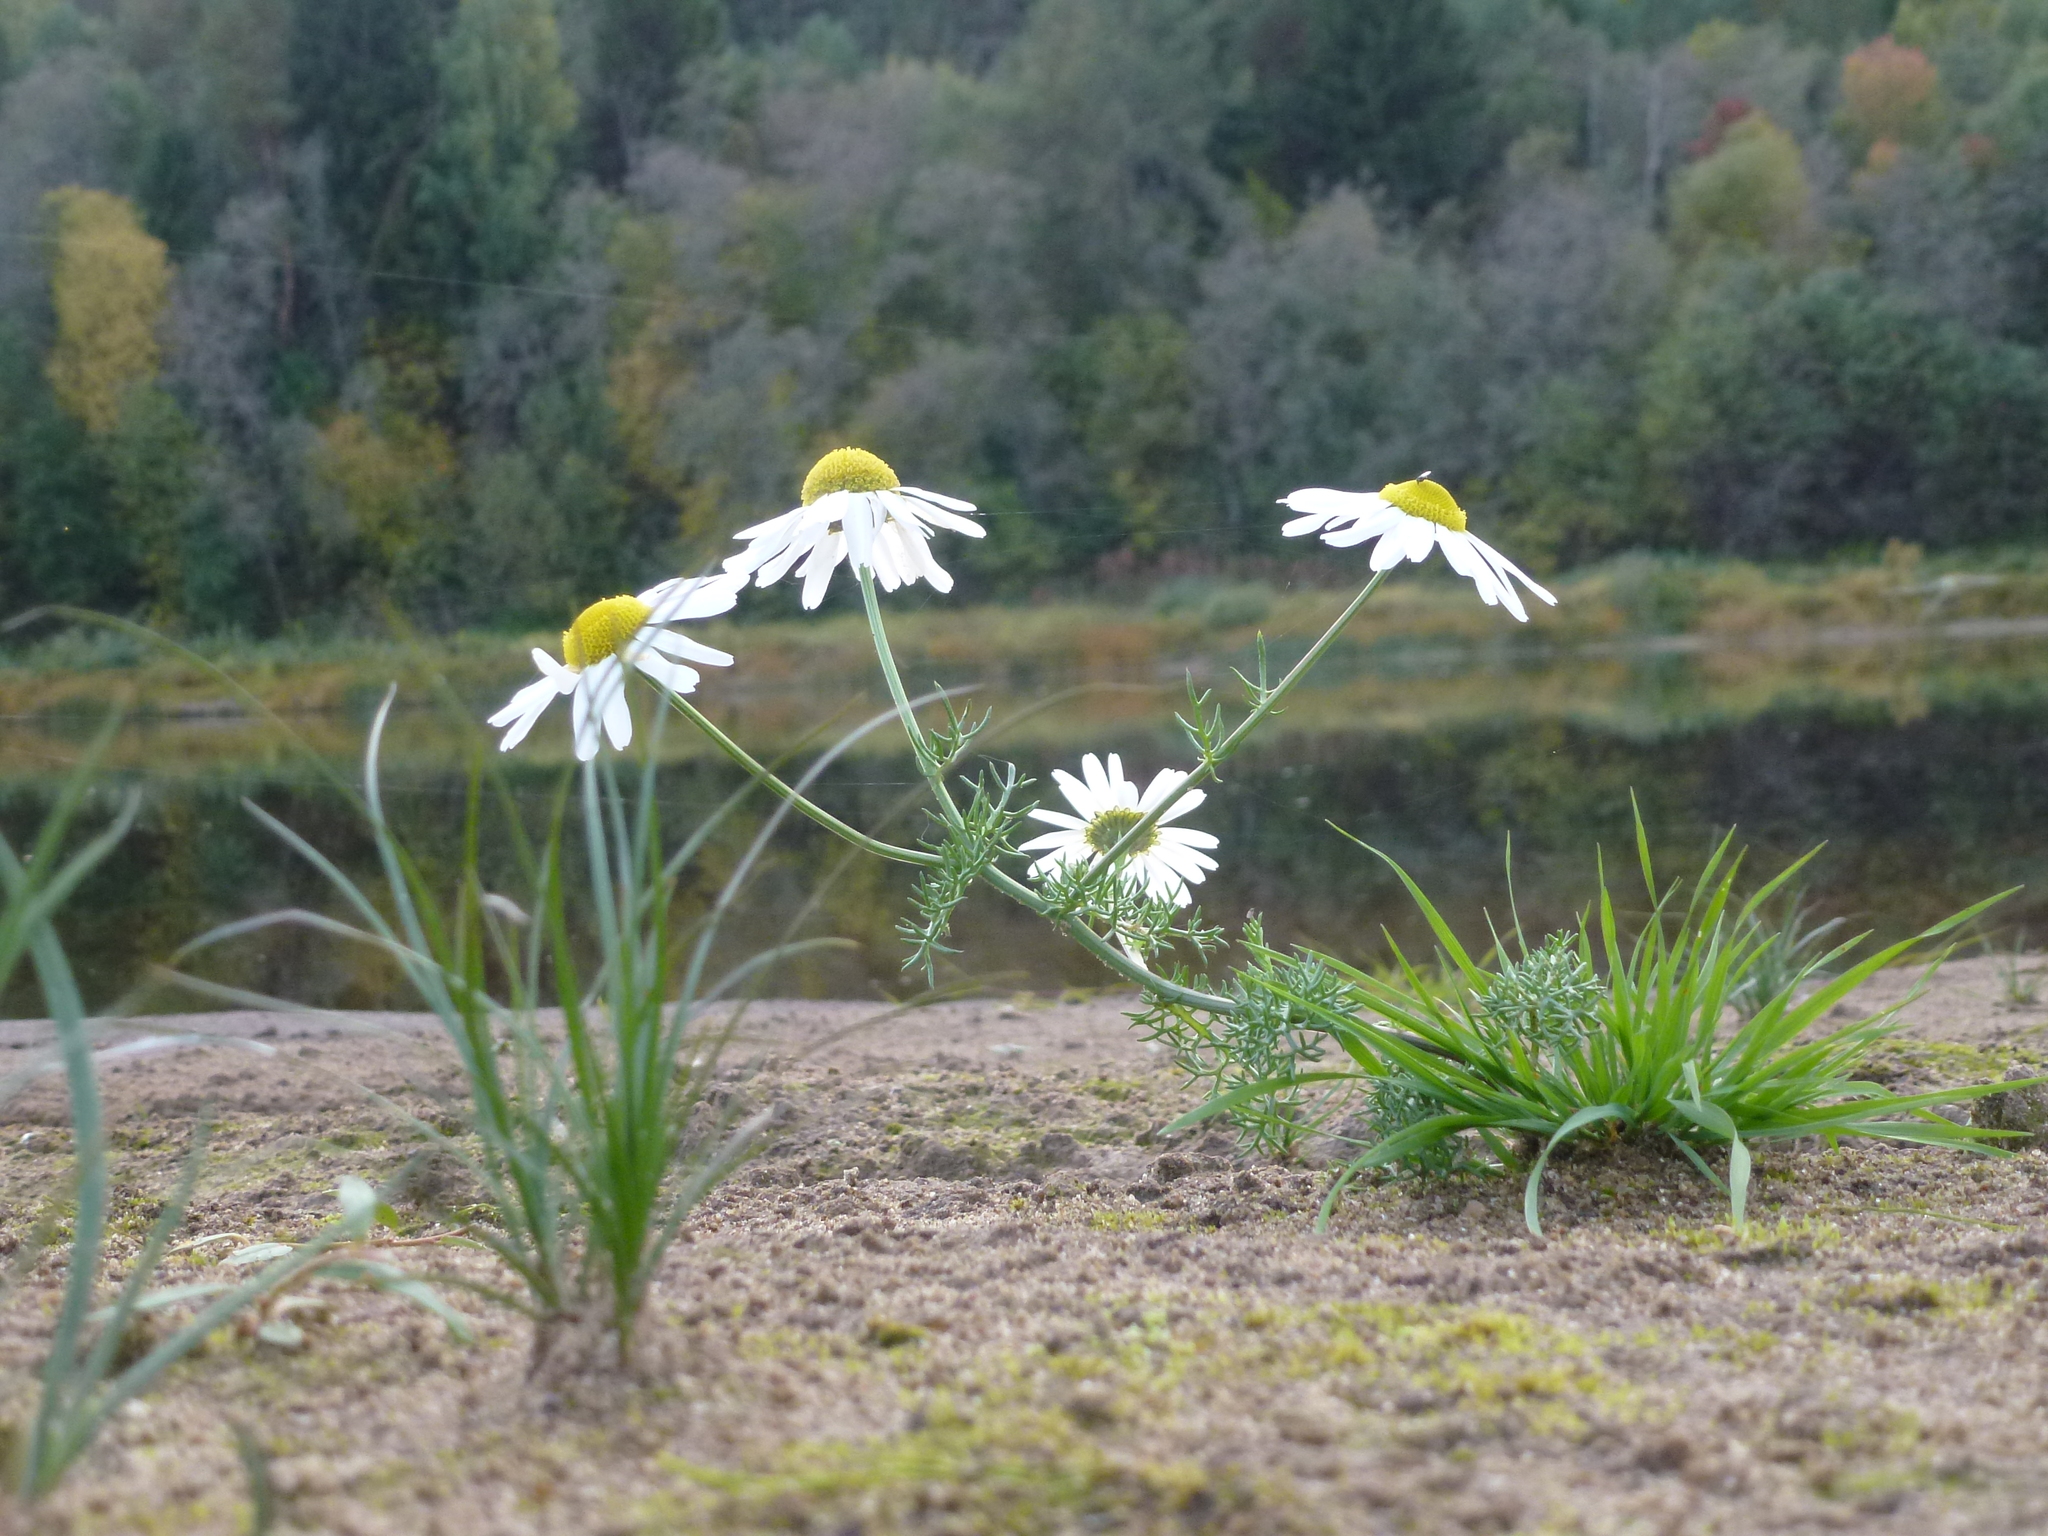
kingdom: Plantae
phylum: Tracheophyta
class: Magnoliopsida
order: Asterales
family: Asteraceae
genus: Tripleurospermum
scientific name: Tripleurospermum inodorum
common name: Scentless mayweed
